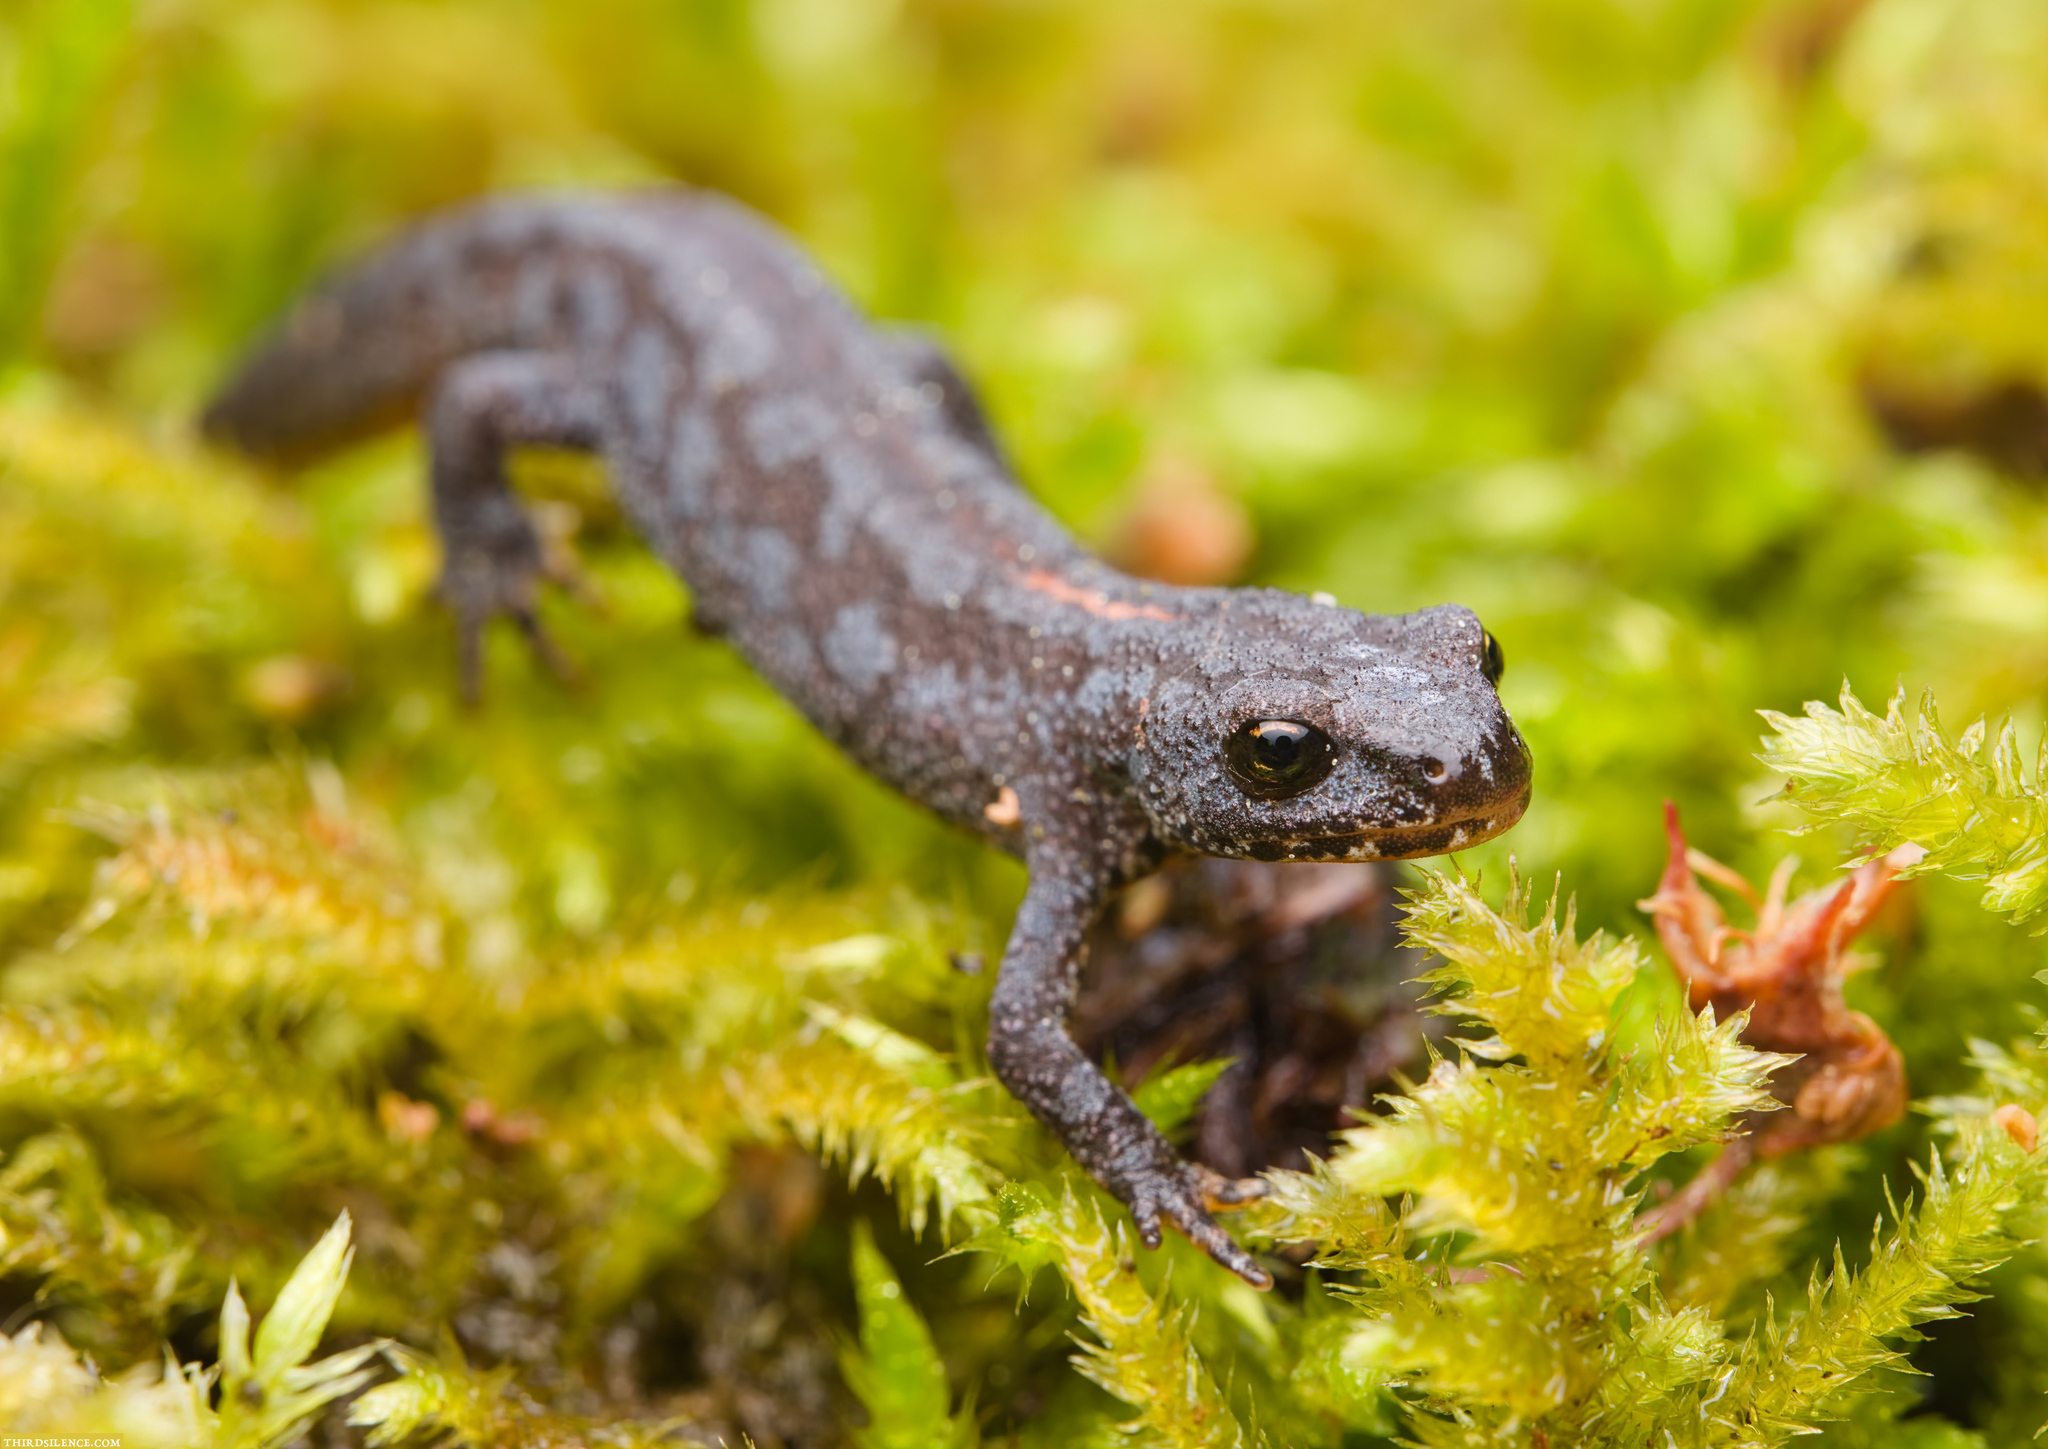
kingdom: Animalia
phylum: Chordata
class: Amphibia
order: Caudata
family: Salamandridae
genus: Ichthyosaura
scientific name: Ichthyosaura alpestris
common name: Alpine newt
